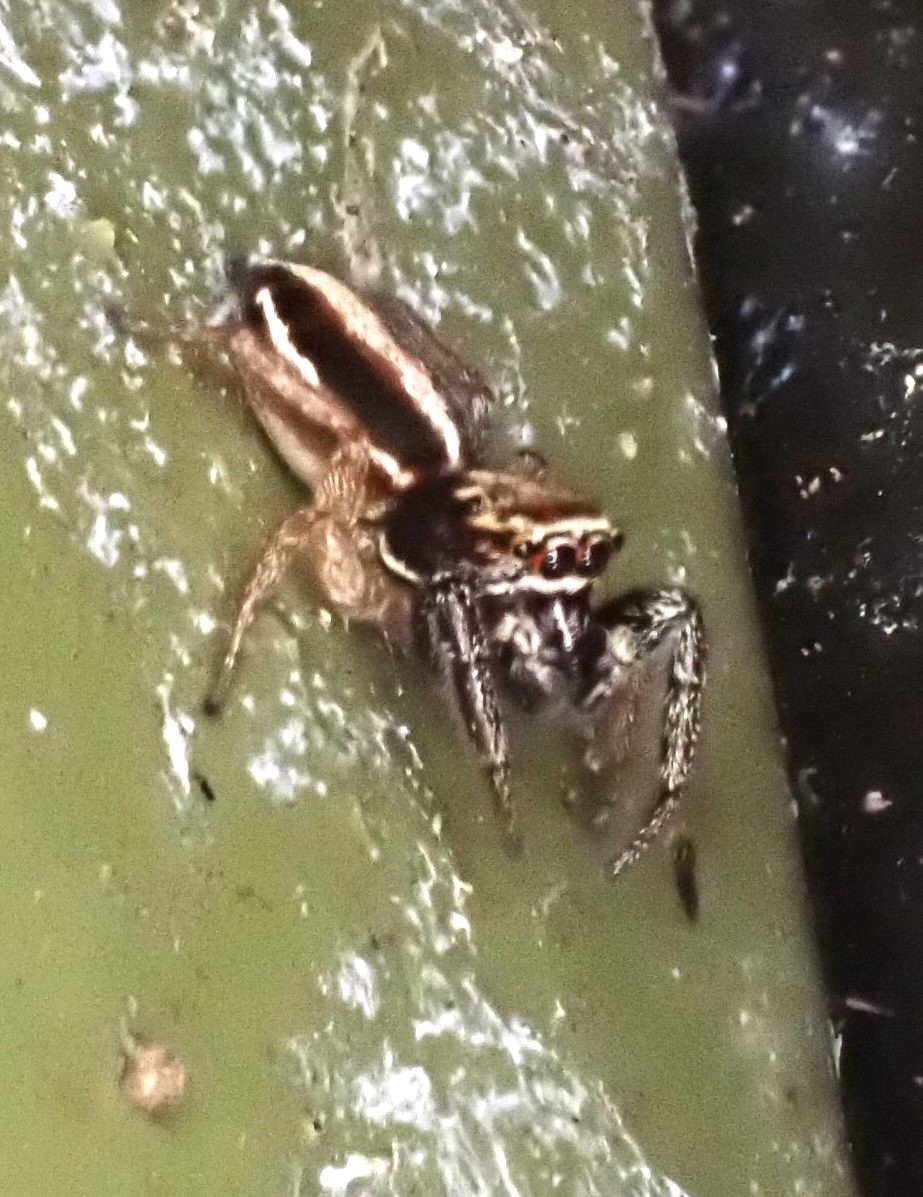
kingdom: Animalia
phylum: Arthropoda
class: Arachnida
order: Araneae
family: Salticidae
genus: Icius
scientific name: Icius subinermis
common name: Jumping spider
